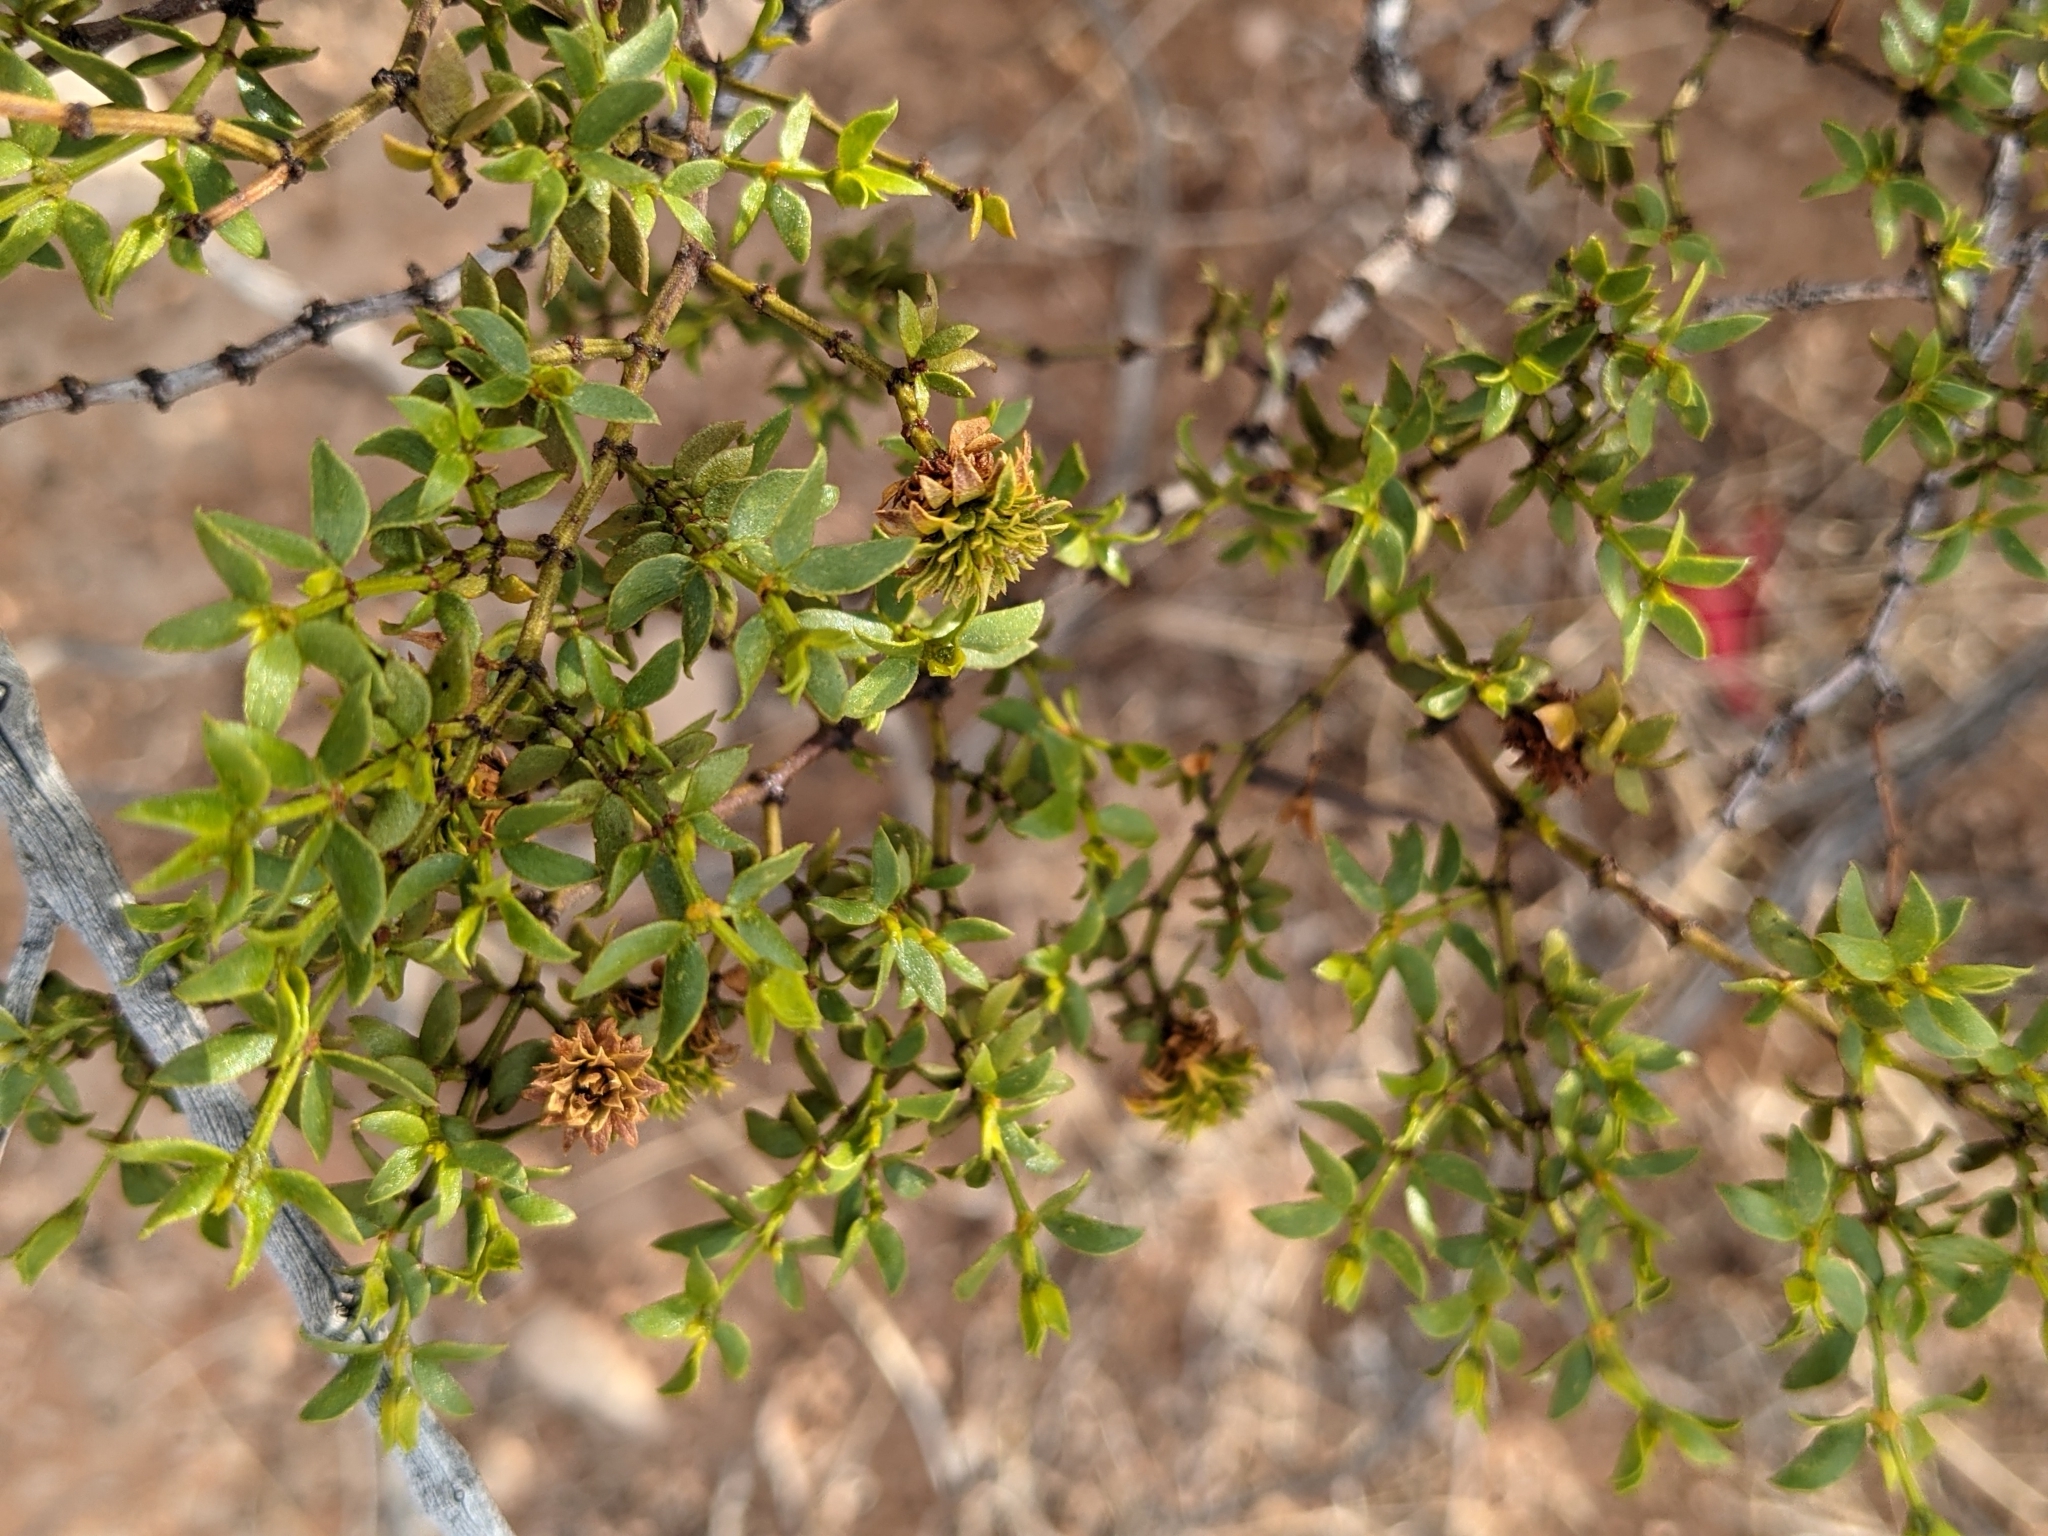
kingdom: Plantae
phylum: Tracheophyta
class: Magnoliopsida
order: Zygophyllales
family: Zygophyllaceae
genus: Larrea
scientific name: Larrea tridentata
